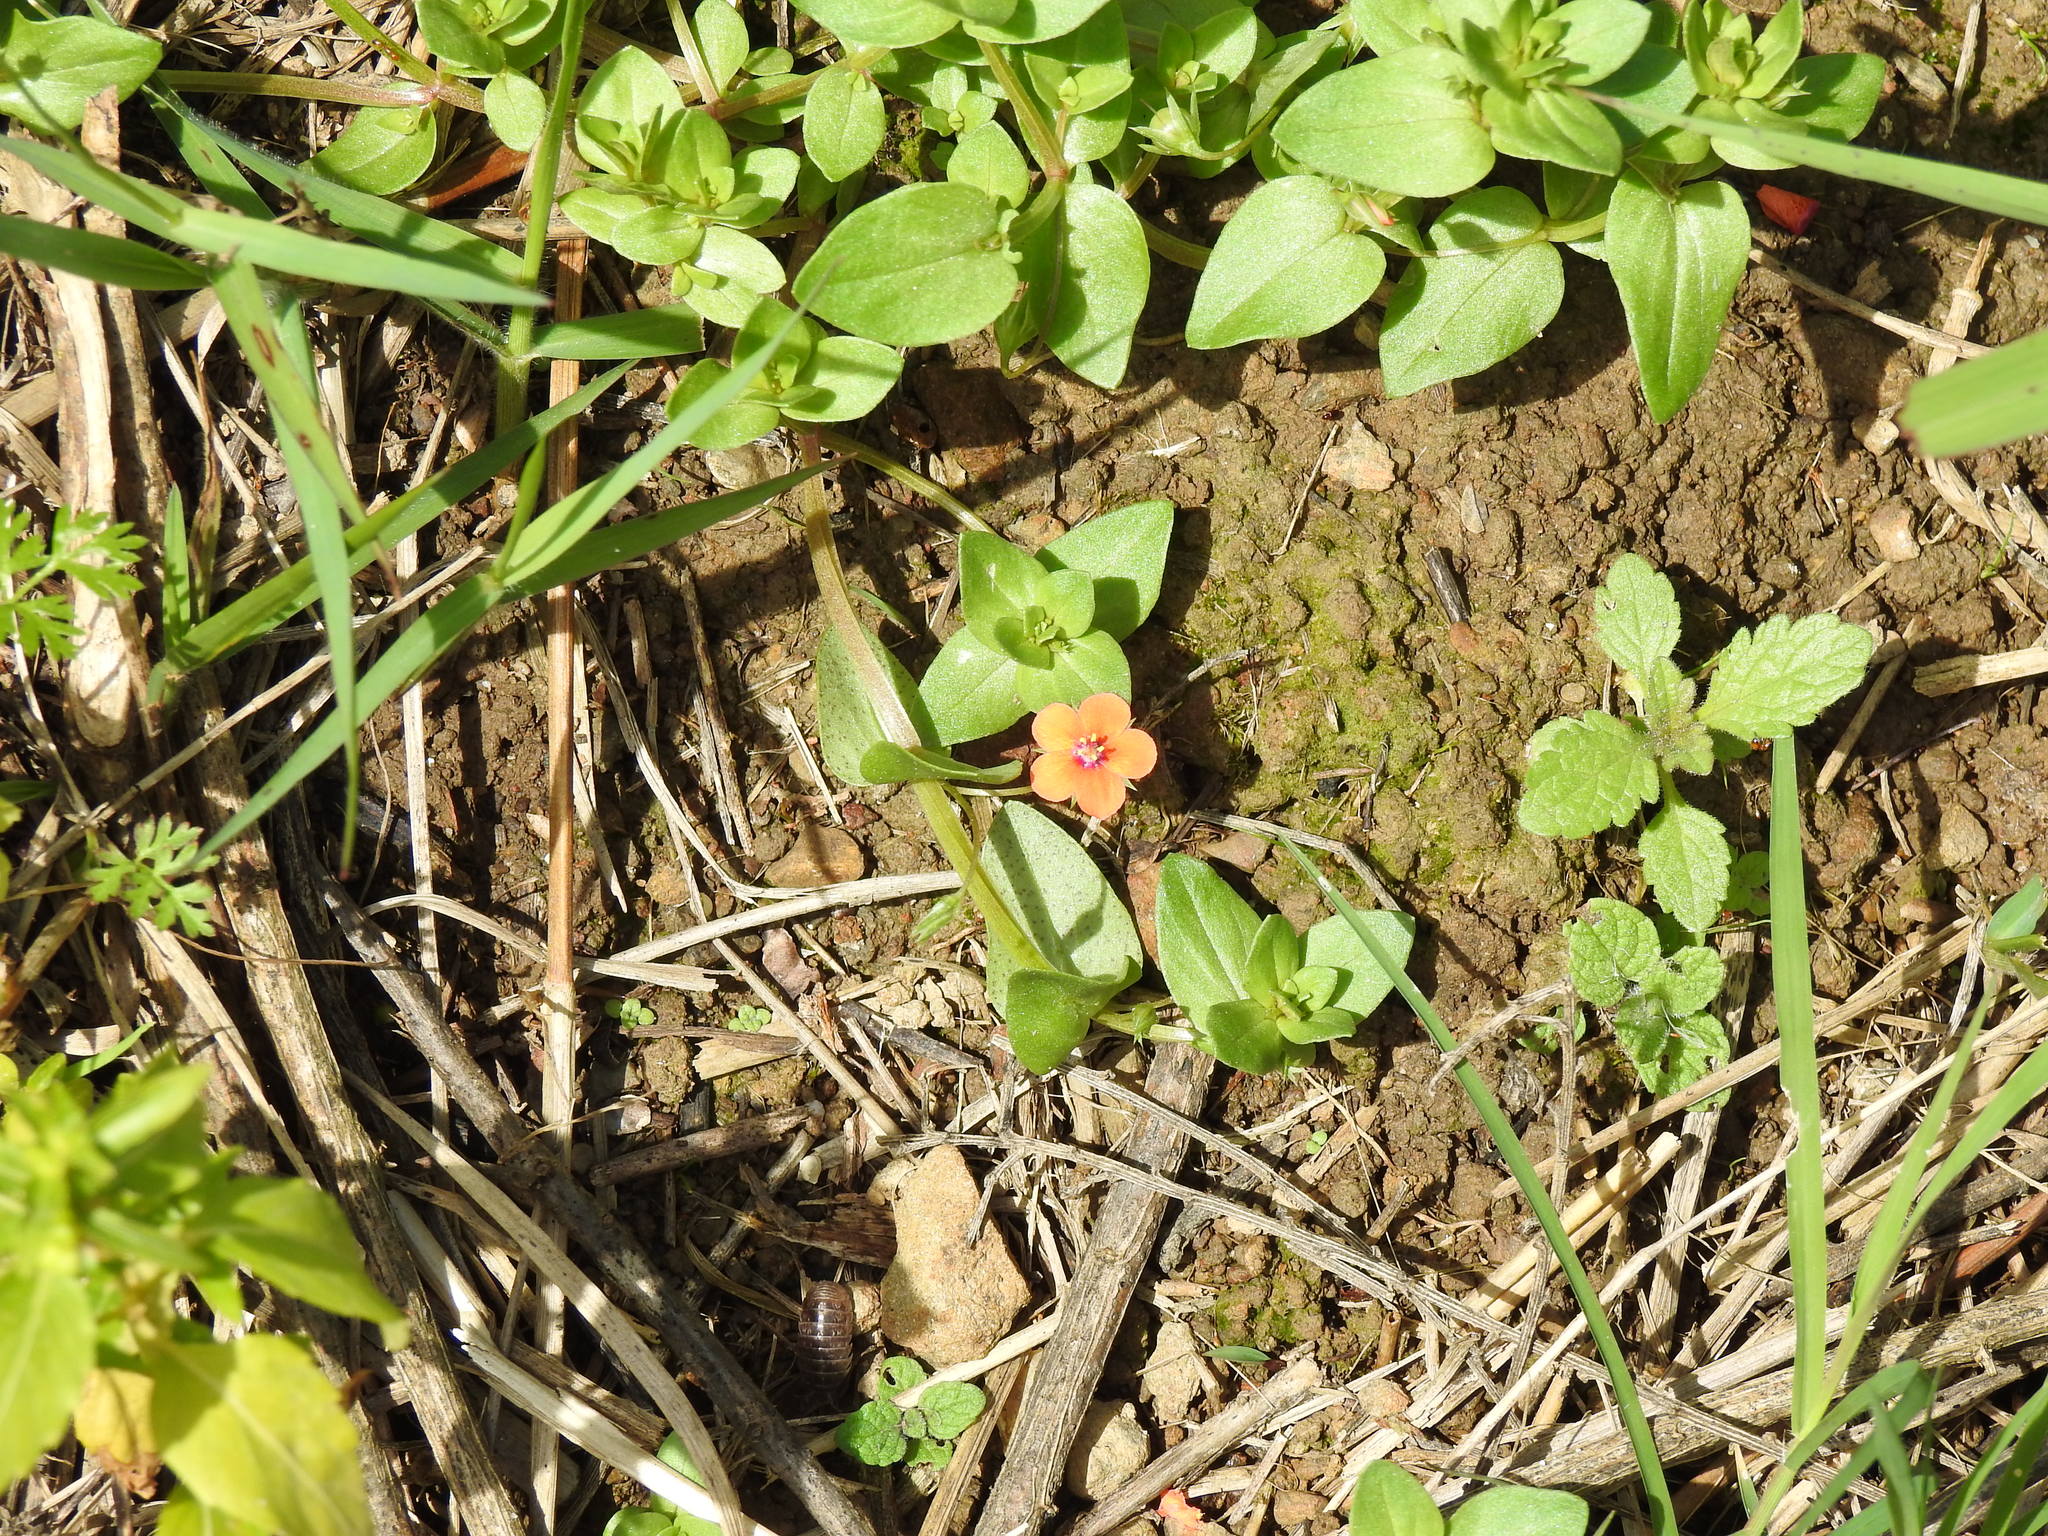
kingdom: Plantae
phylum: Tracheophyta
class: Magnoliopsida
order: Ericales
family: Primulaceae
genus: Lysimachia
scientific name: Lysimachia arvensis
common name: Scarlet pimpernel
